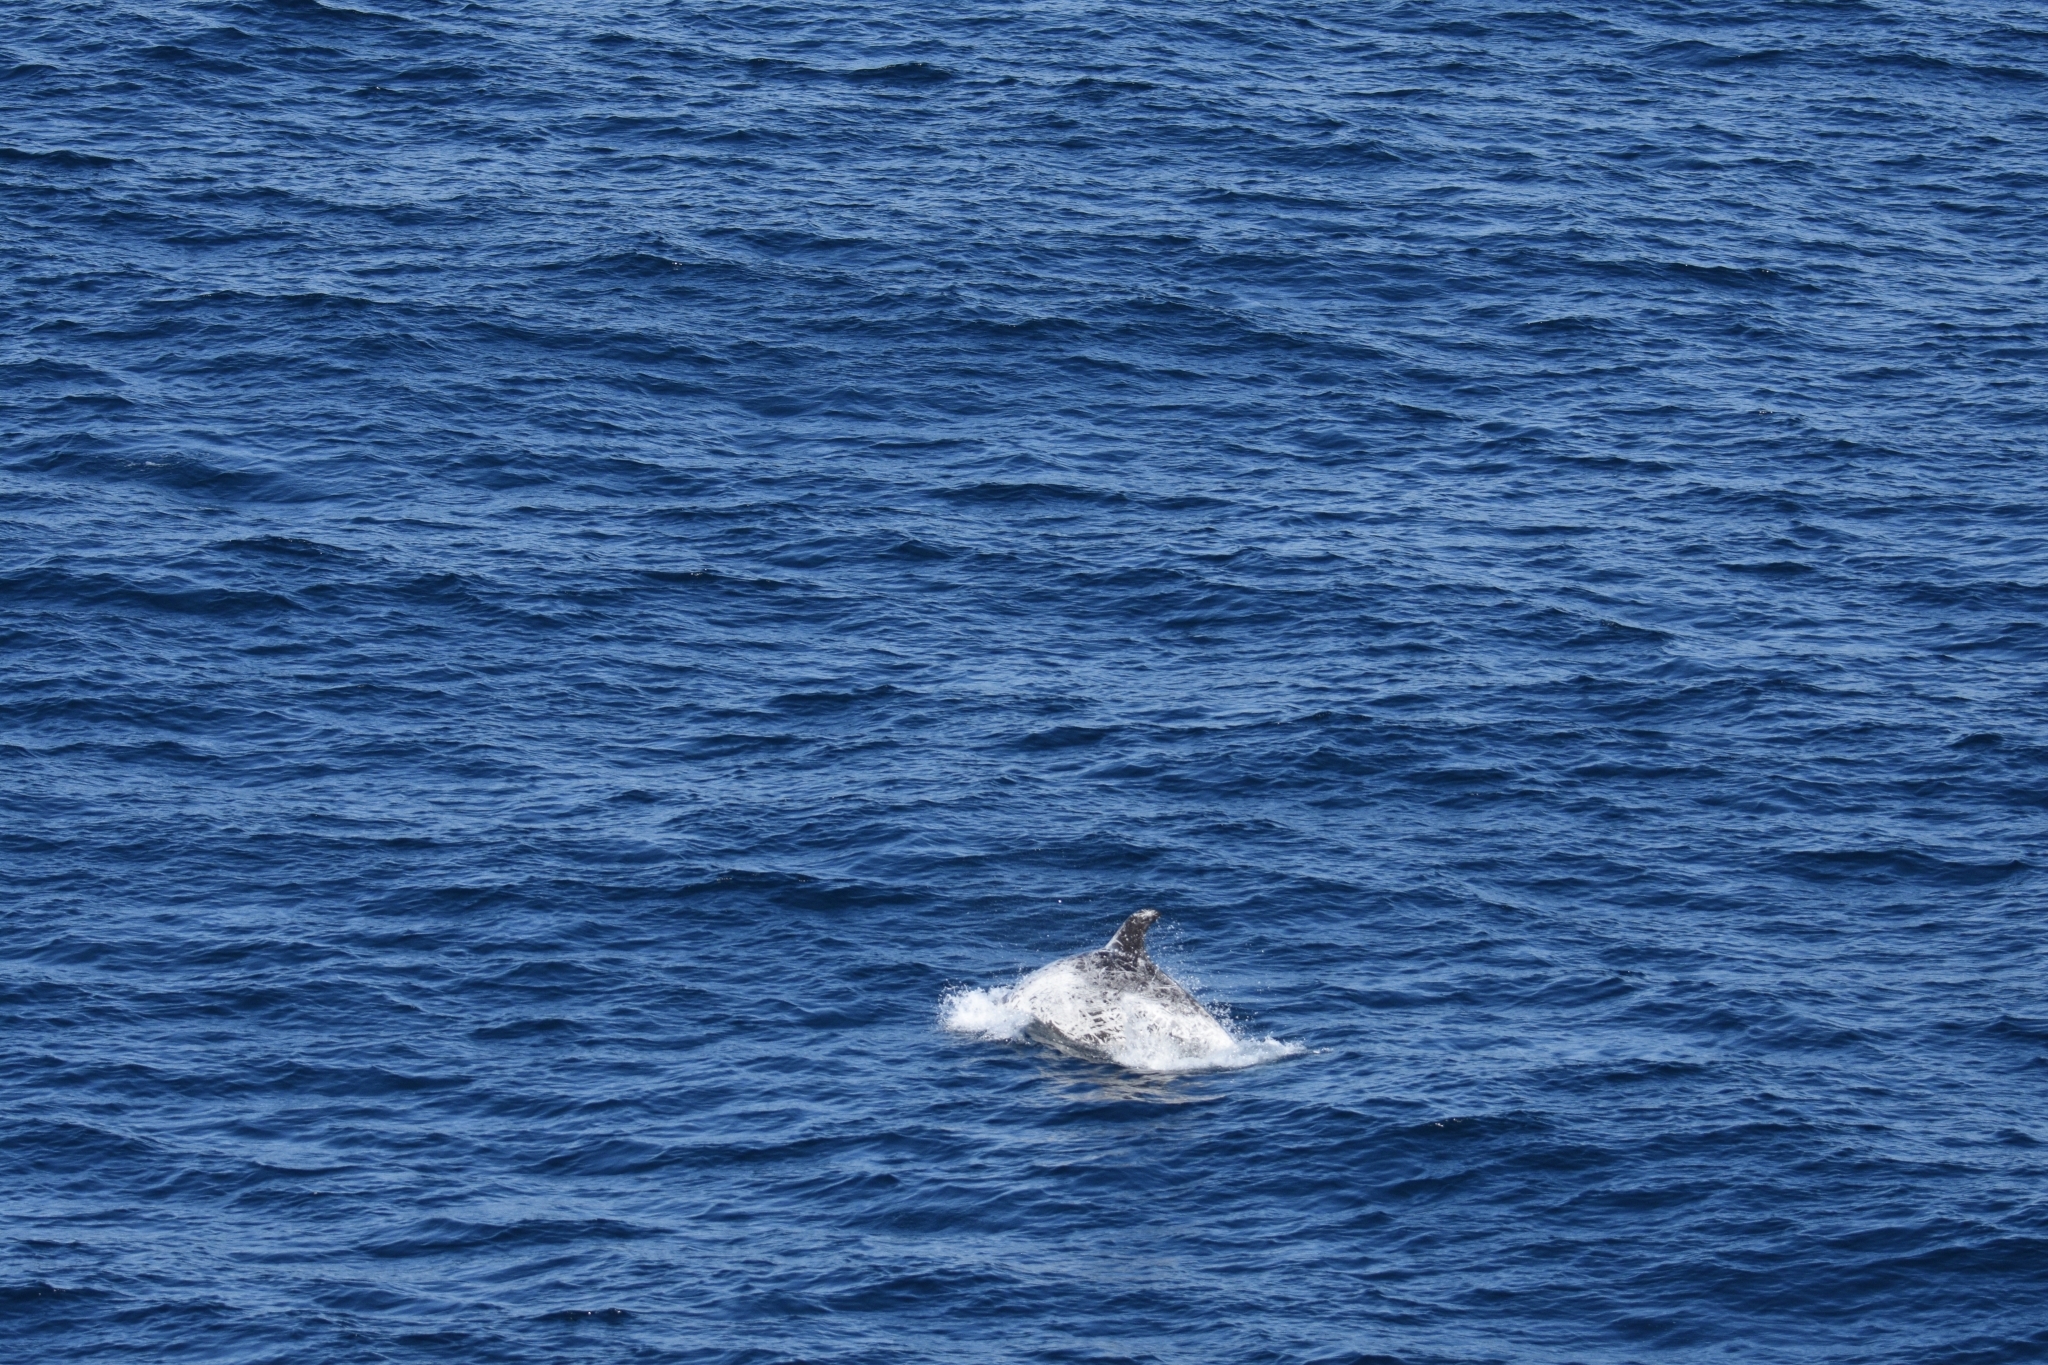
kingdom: Animalia
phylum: Chordata
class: Mammalia
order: Cetacea
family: Delphinidae
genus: Grampus
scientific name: Grampus griseus
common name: Risso's dolphin
